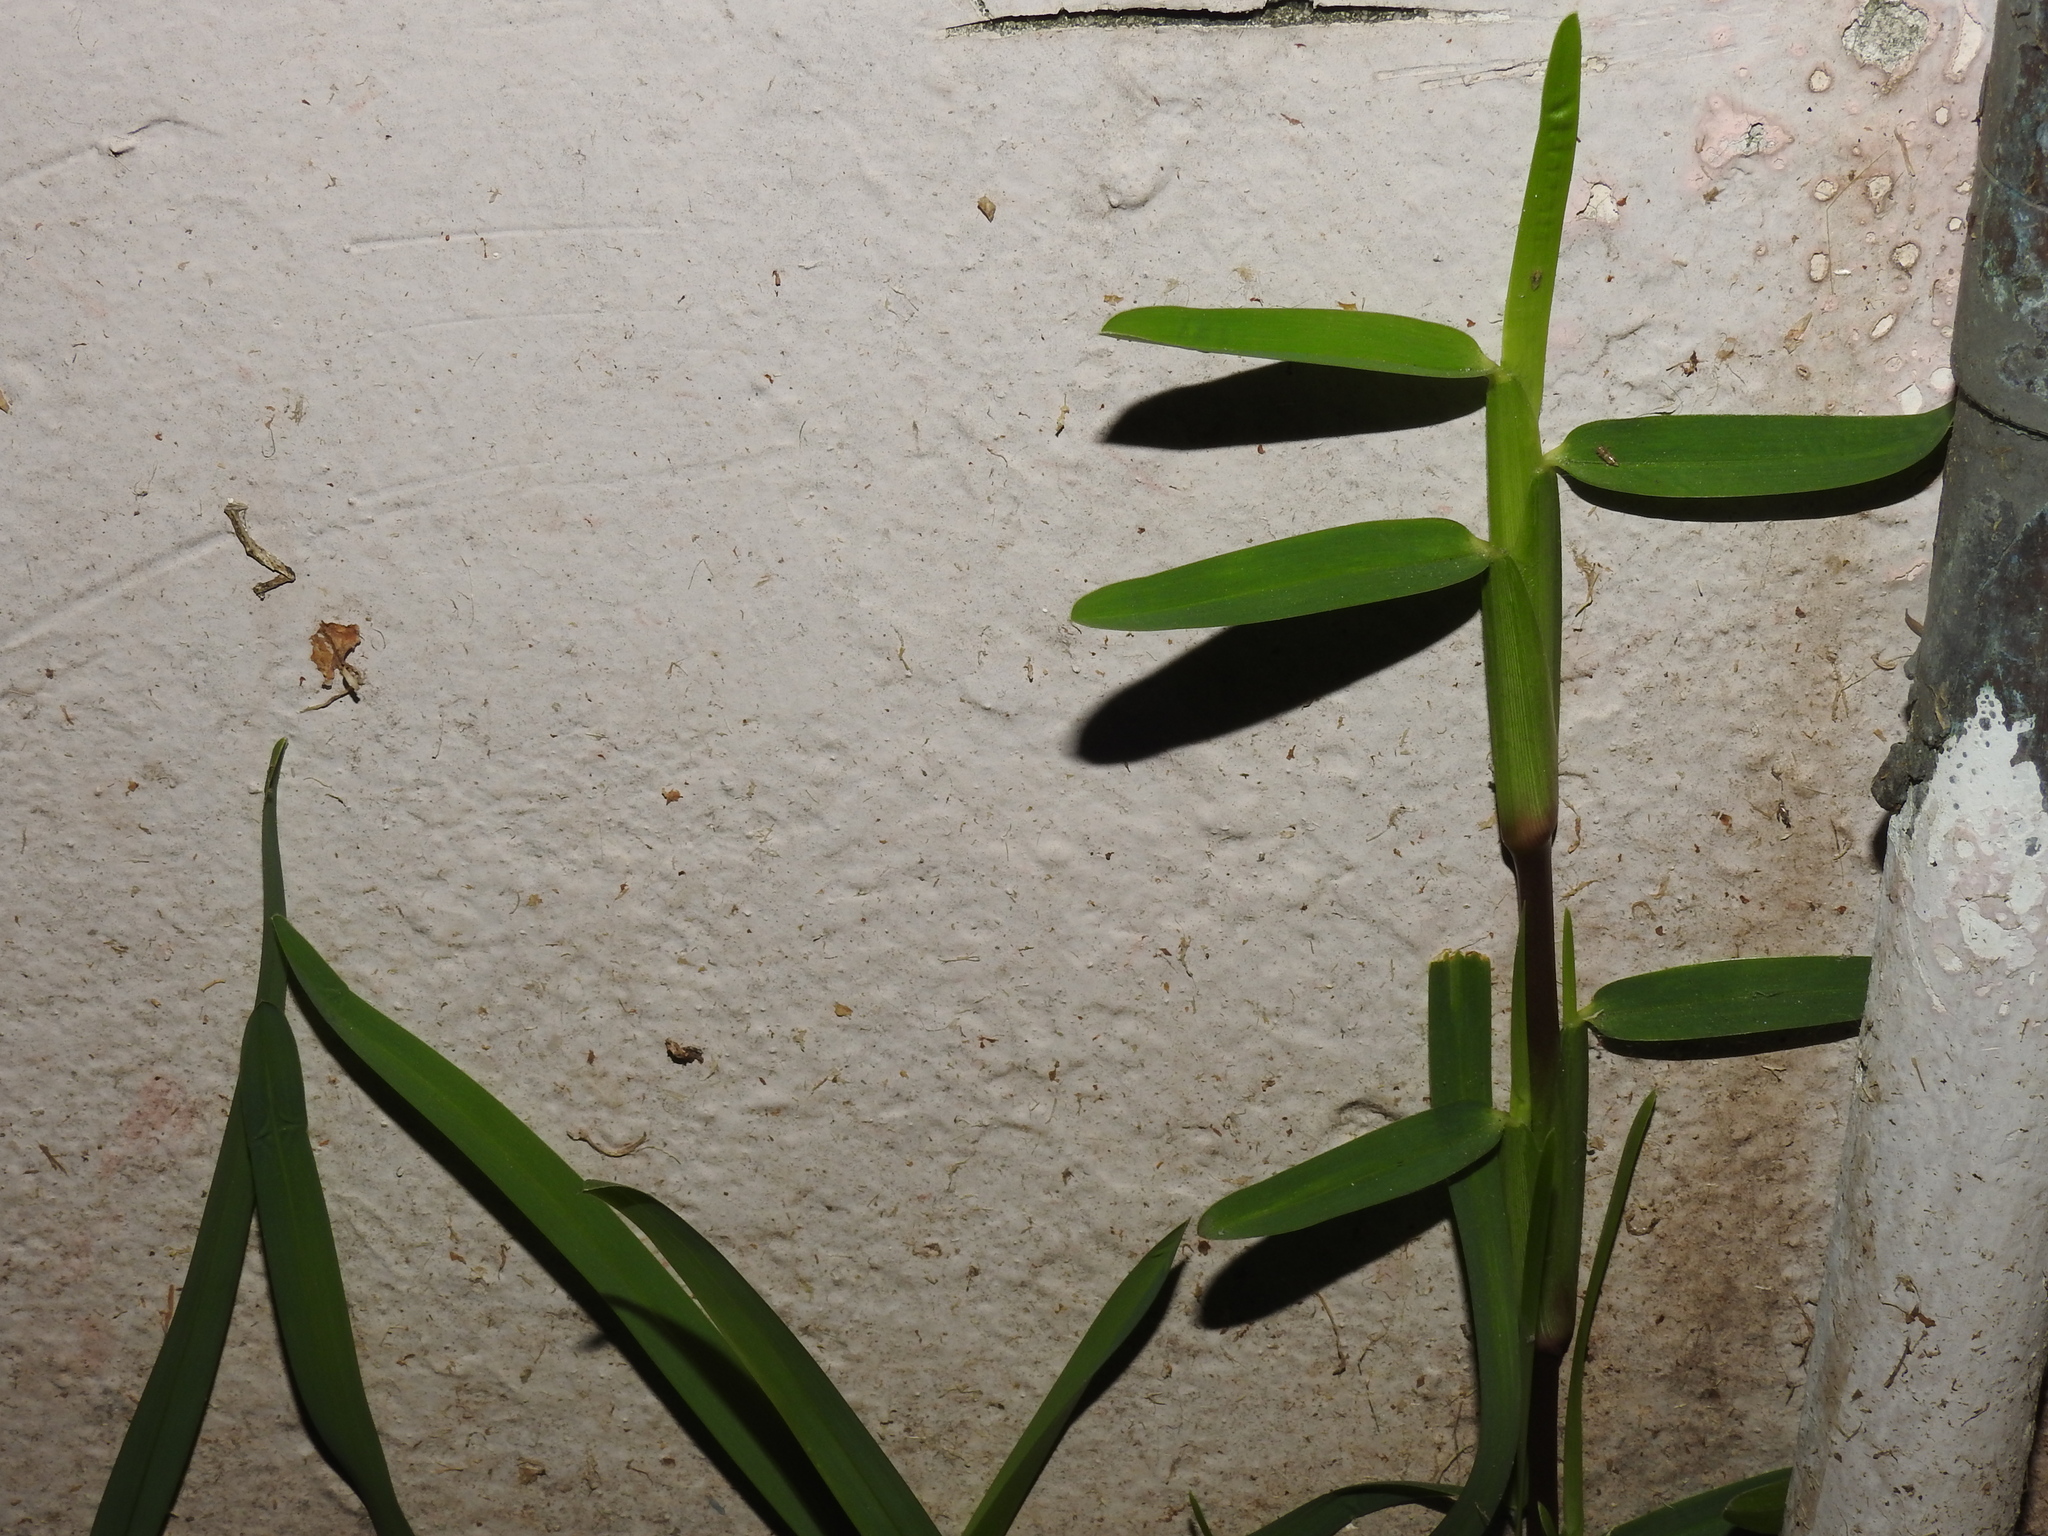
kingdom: Plantae
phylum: Tracheophyta
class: Liliopsida
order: Poales
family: Poaceae
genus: Stenotaphrum
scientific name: Stenotaphrum secundatum
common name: St. augustine grass
